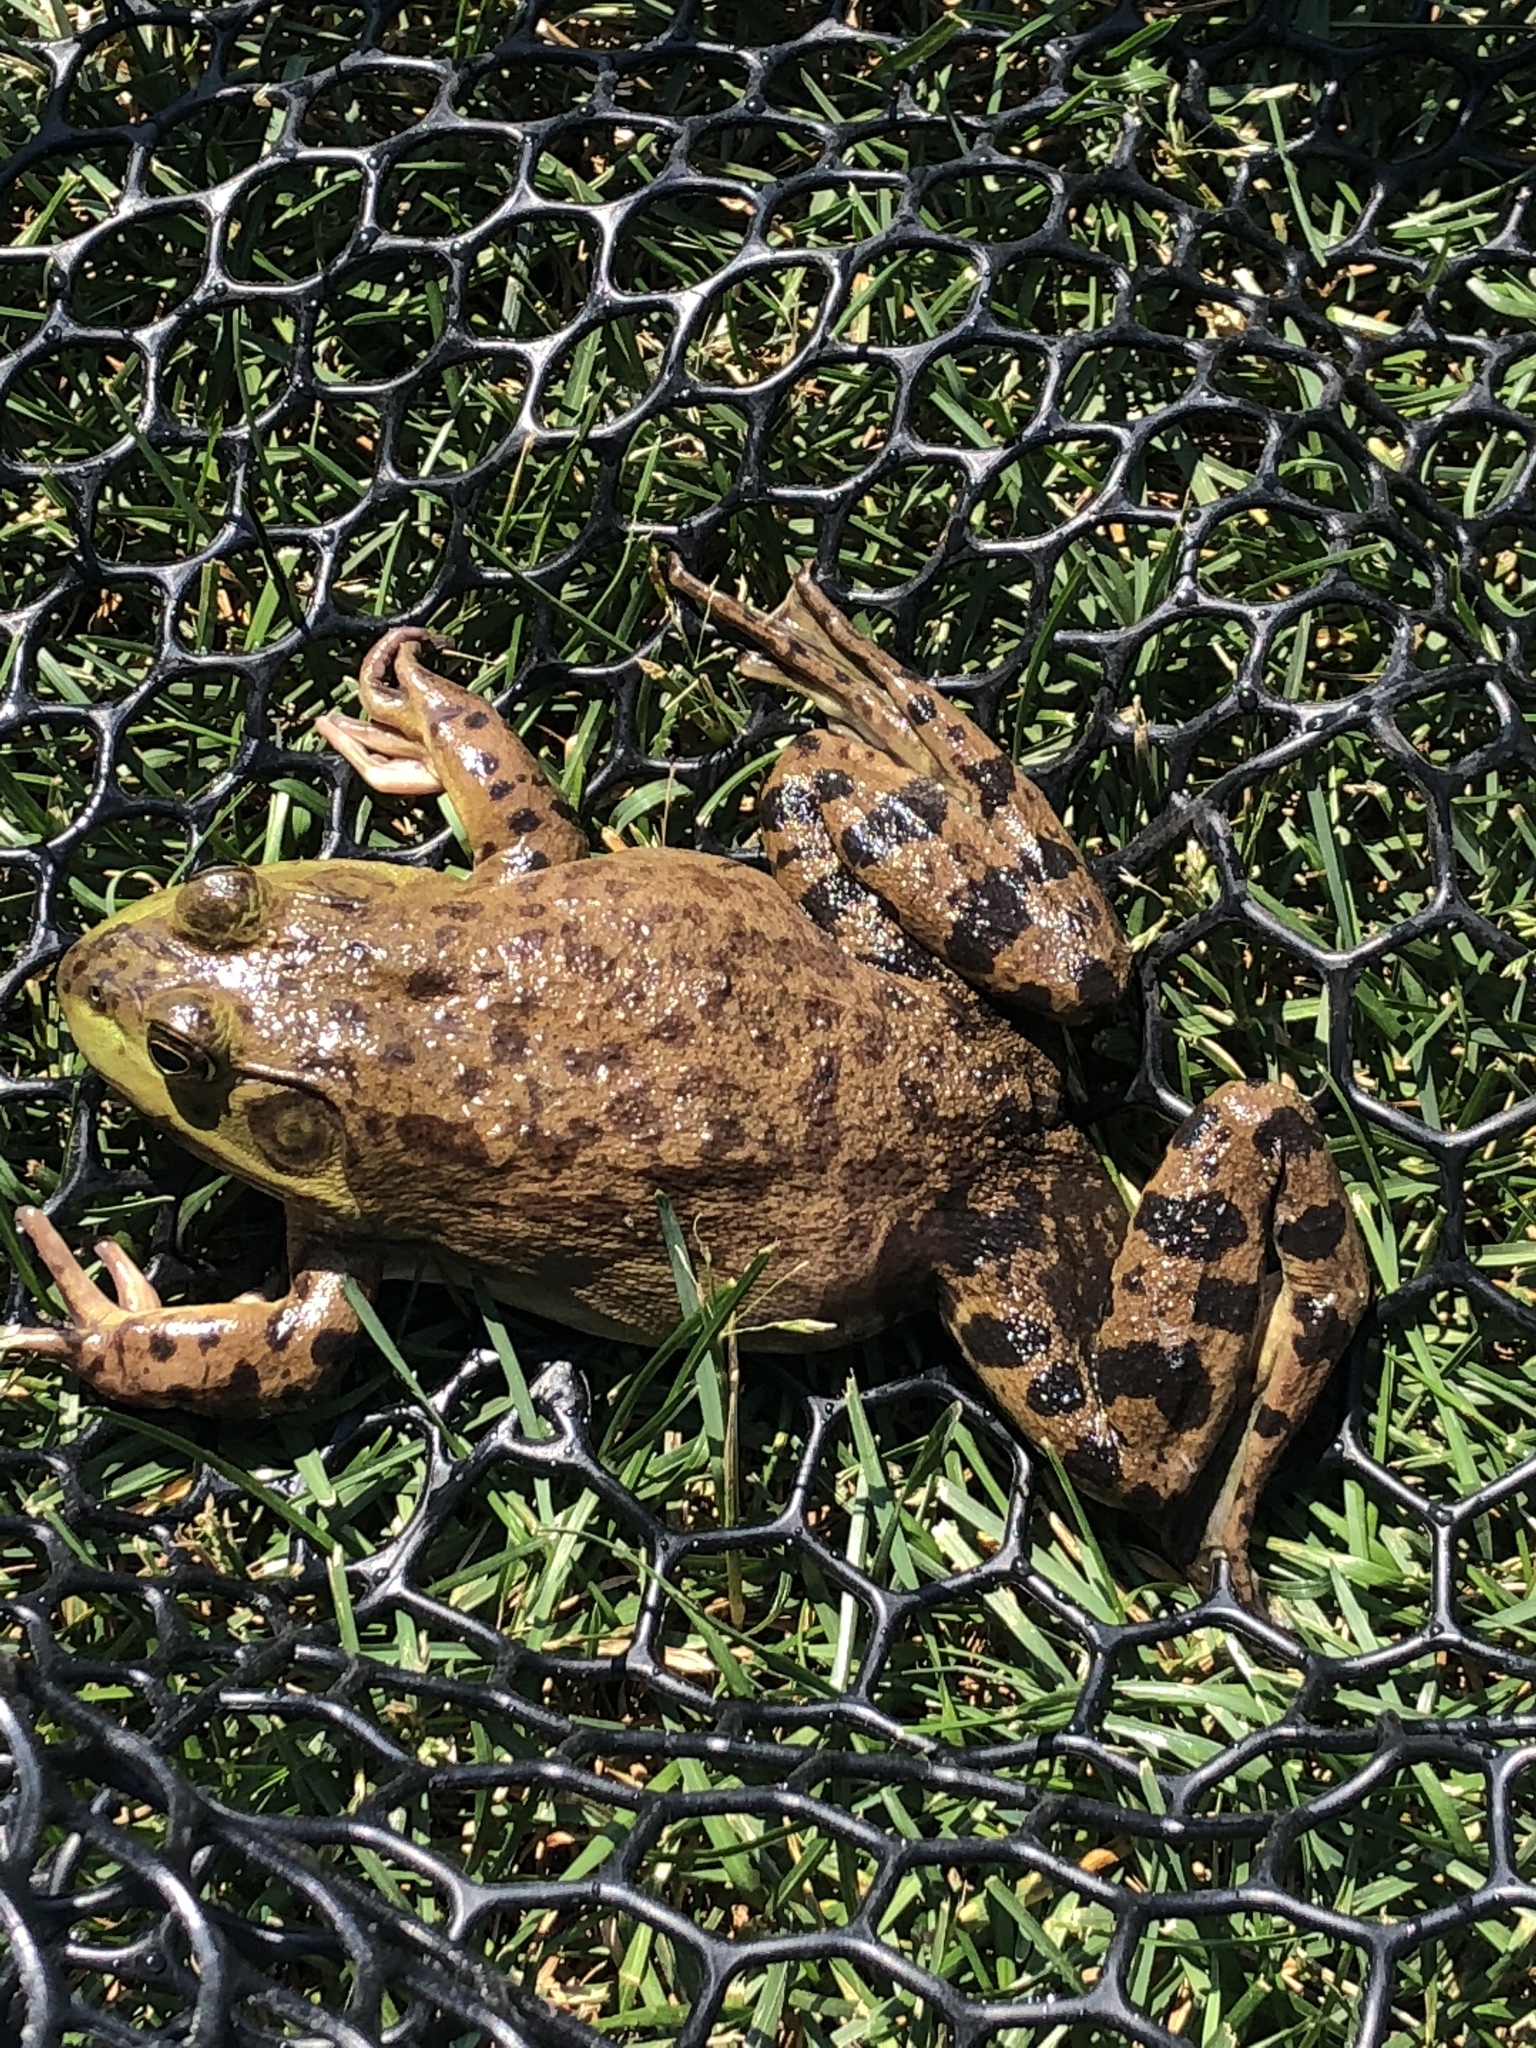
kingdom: Animalia
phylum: Chordata
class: Amphibia
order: Anura
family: Ranidae
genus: Lithobates
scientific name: Lithobates catesbeianus
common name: American bullfrog
